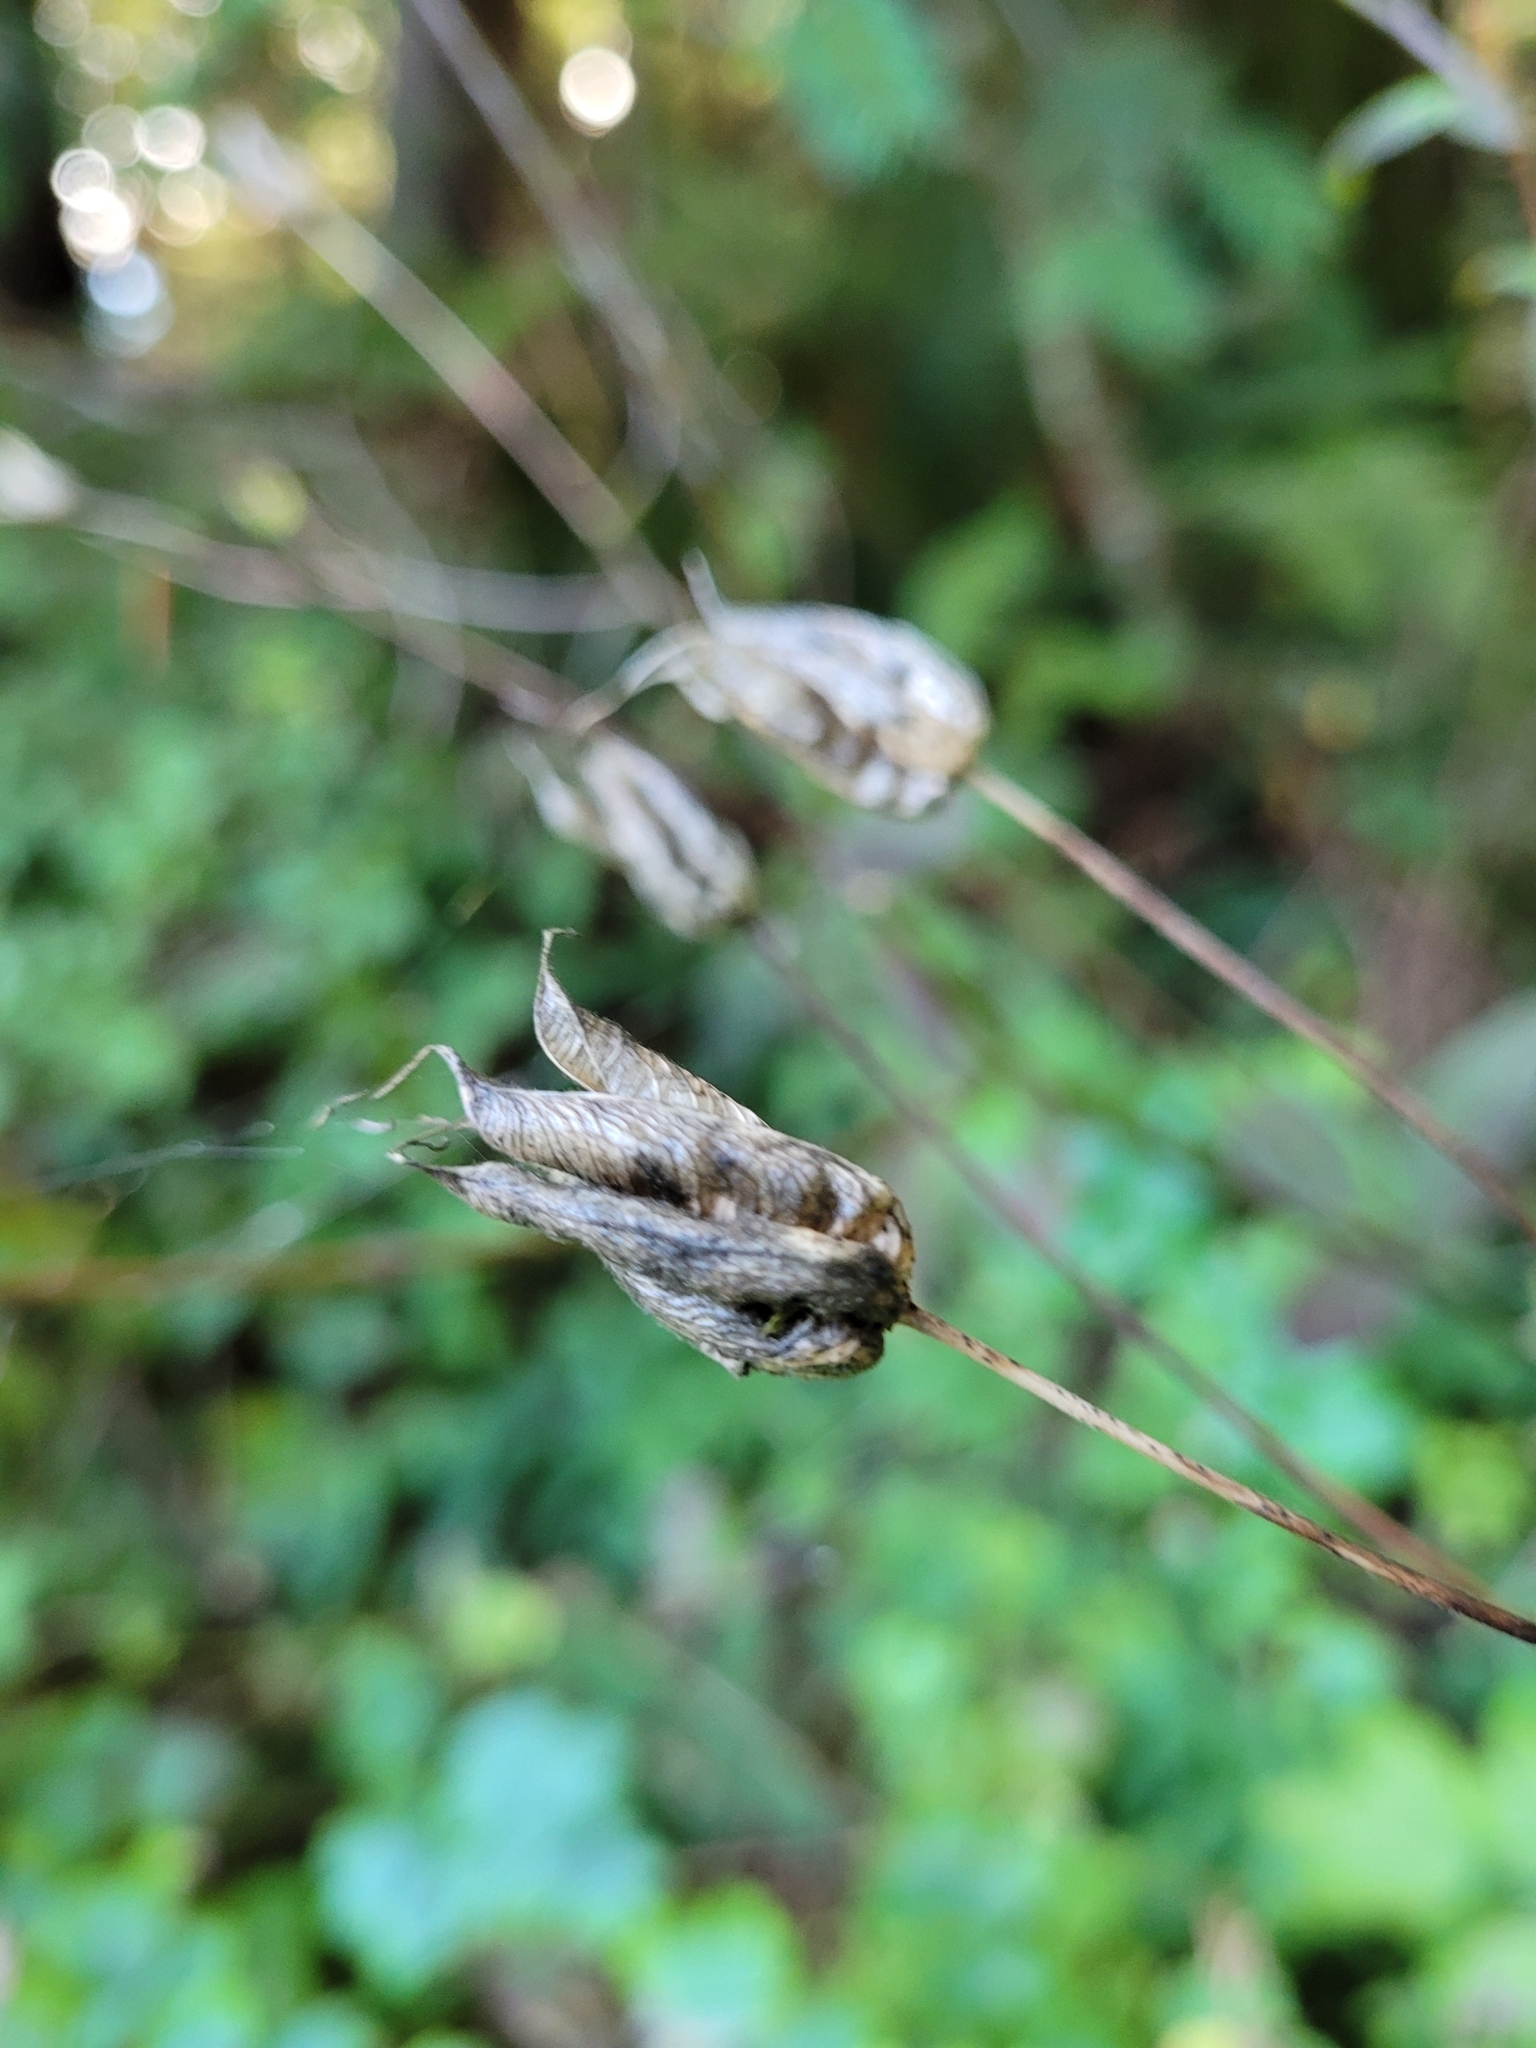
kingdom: Plantae
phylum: Tracheophyta
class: Magnoliopsida
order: Ranunculales
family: Ranunculaceae
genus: Aquilegia
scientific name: Aquilegia vulgaris
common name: Columbine
